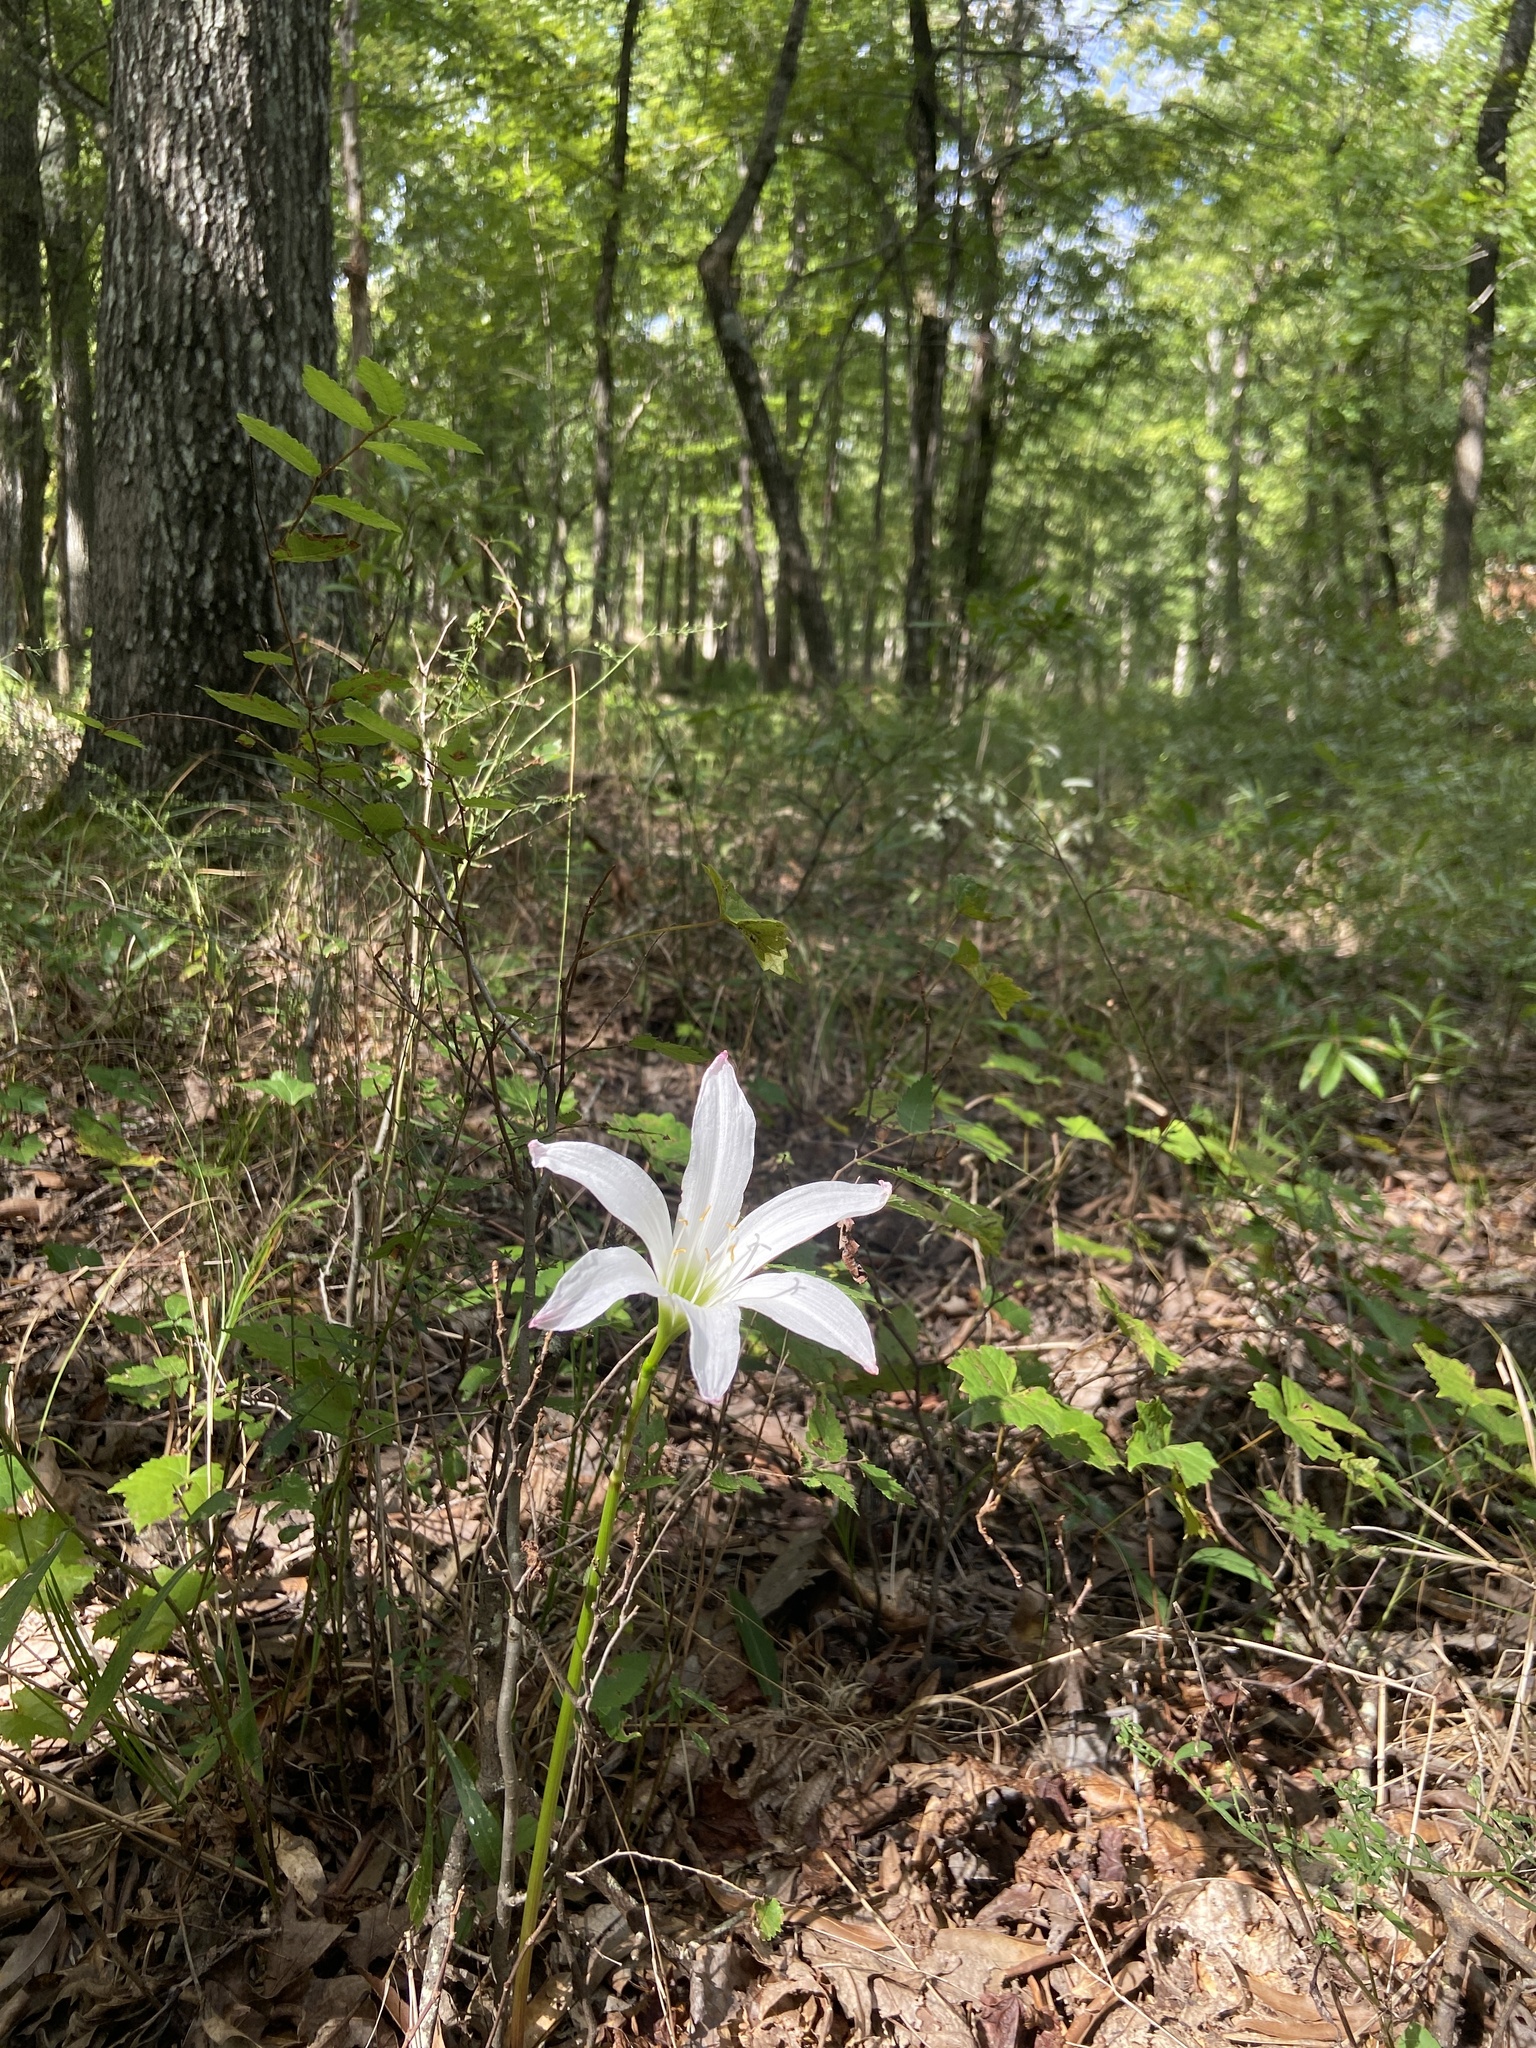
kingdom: Plantae
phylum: Tracheophyta
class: Liliopsida
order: Asparagales
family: Amaryllidaceae
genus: Zephyranthes
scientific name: Zephyranthes atamasco
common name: Atamasco lily
